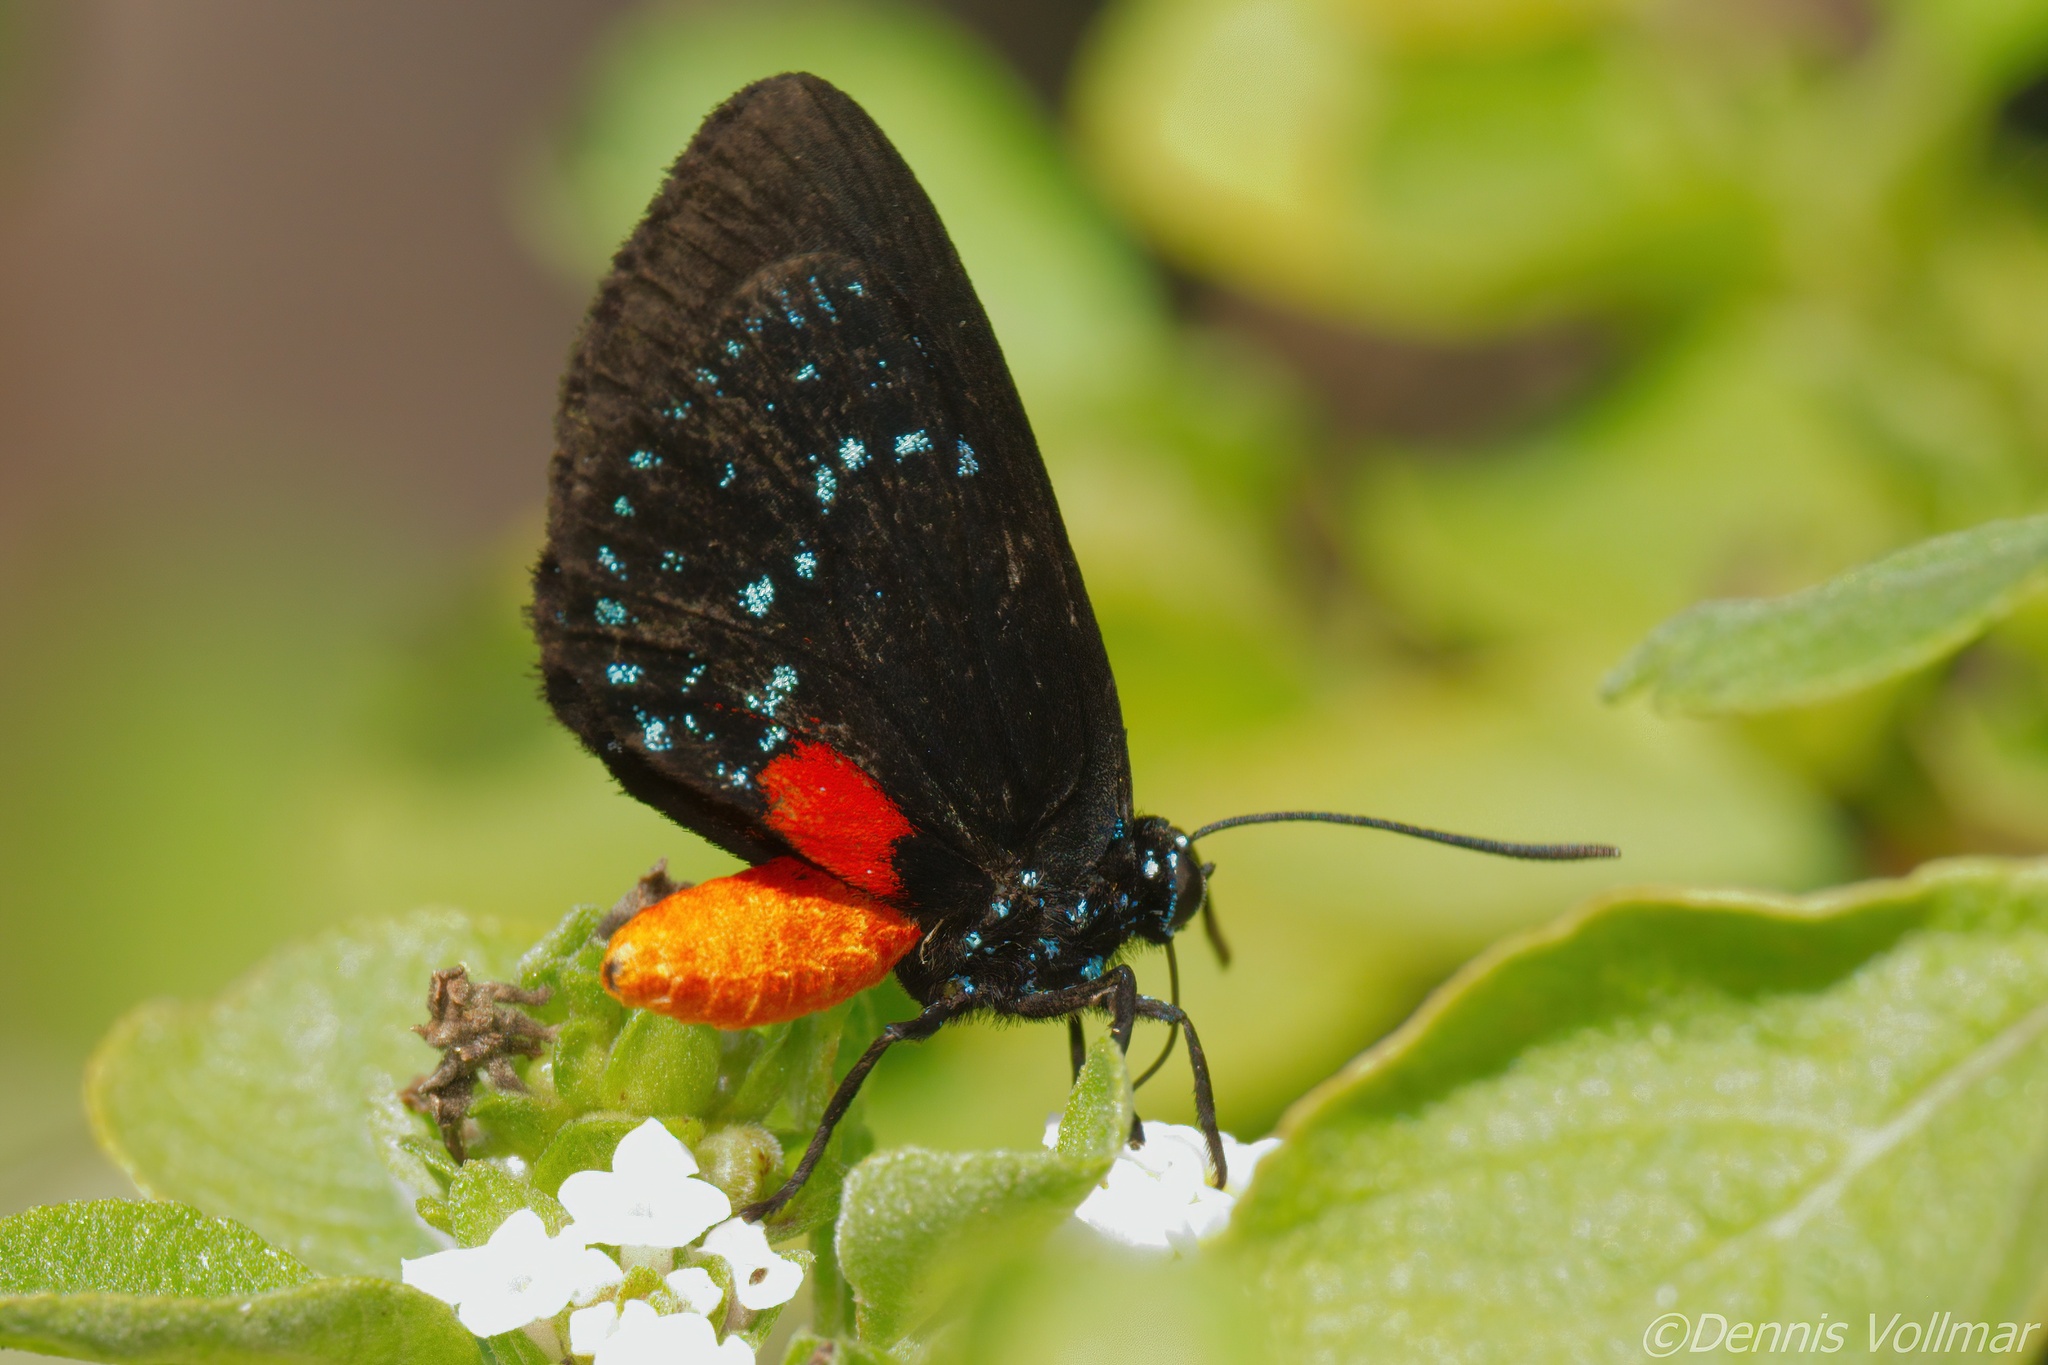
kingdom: Animalia
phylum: Arthropoda
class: Insecta
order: Lepidoptera
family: Lycaenidae
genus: Eumaeus
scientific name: Eumaeus atala
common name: Atala
